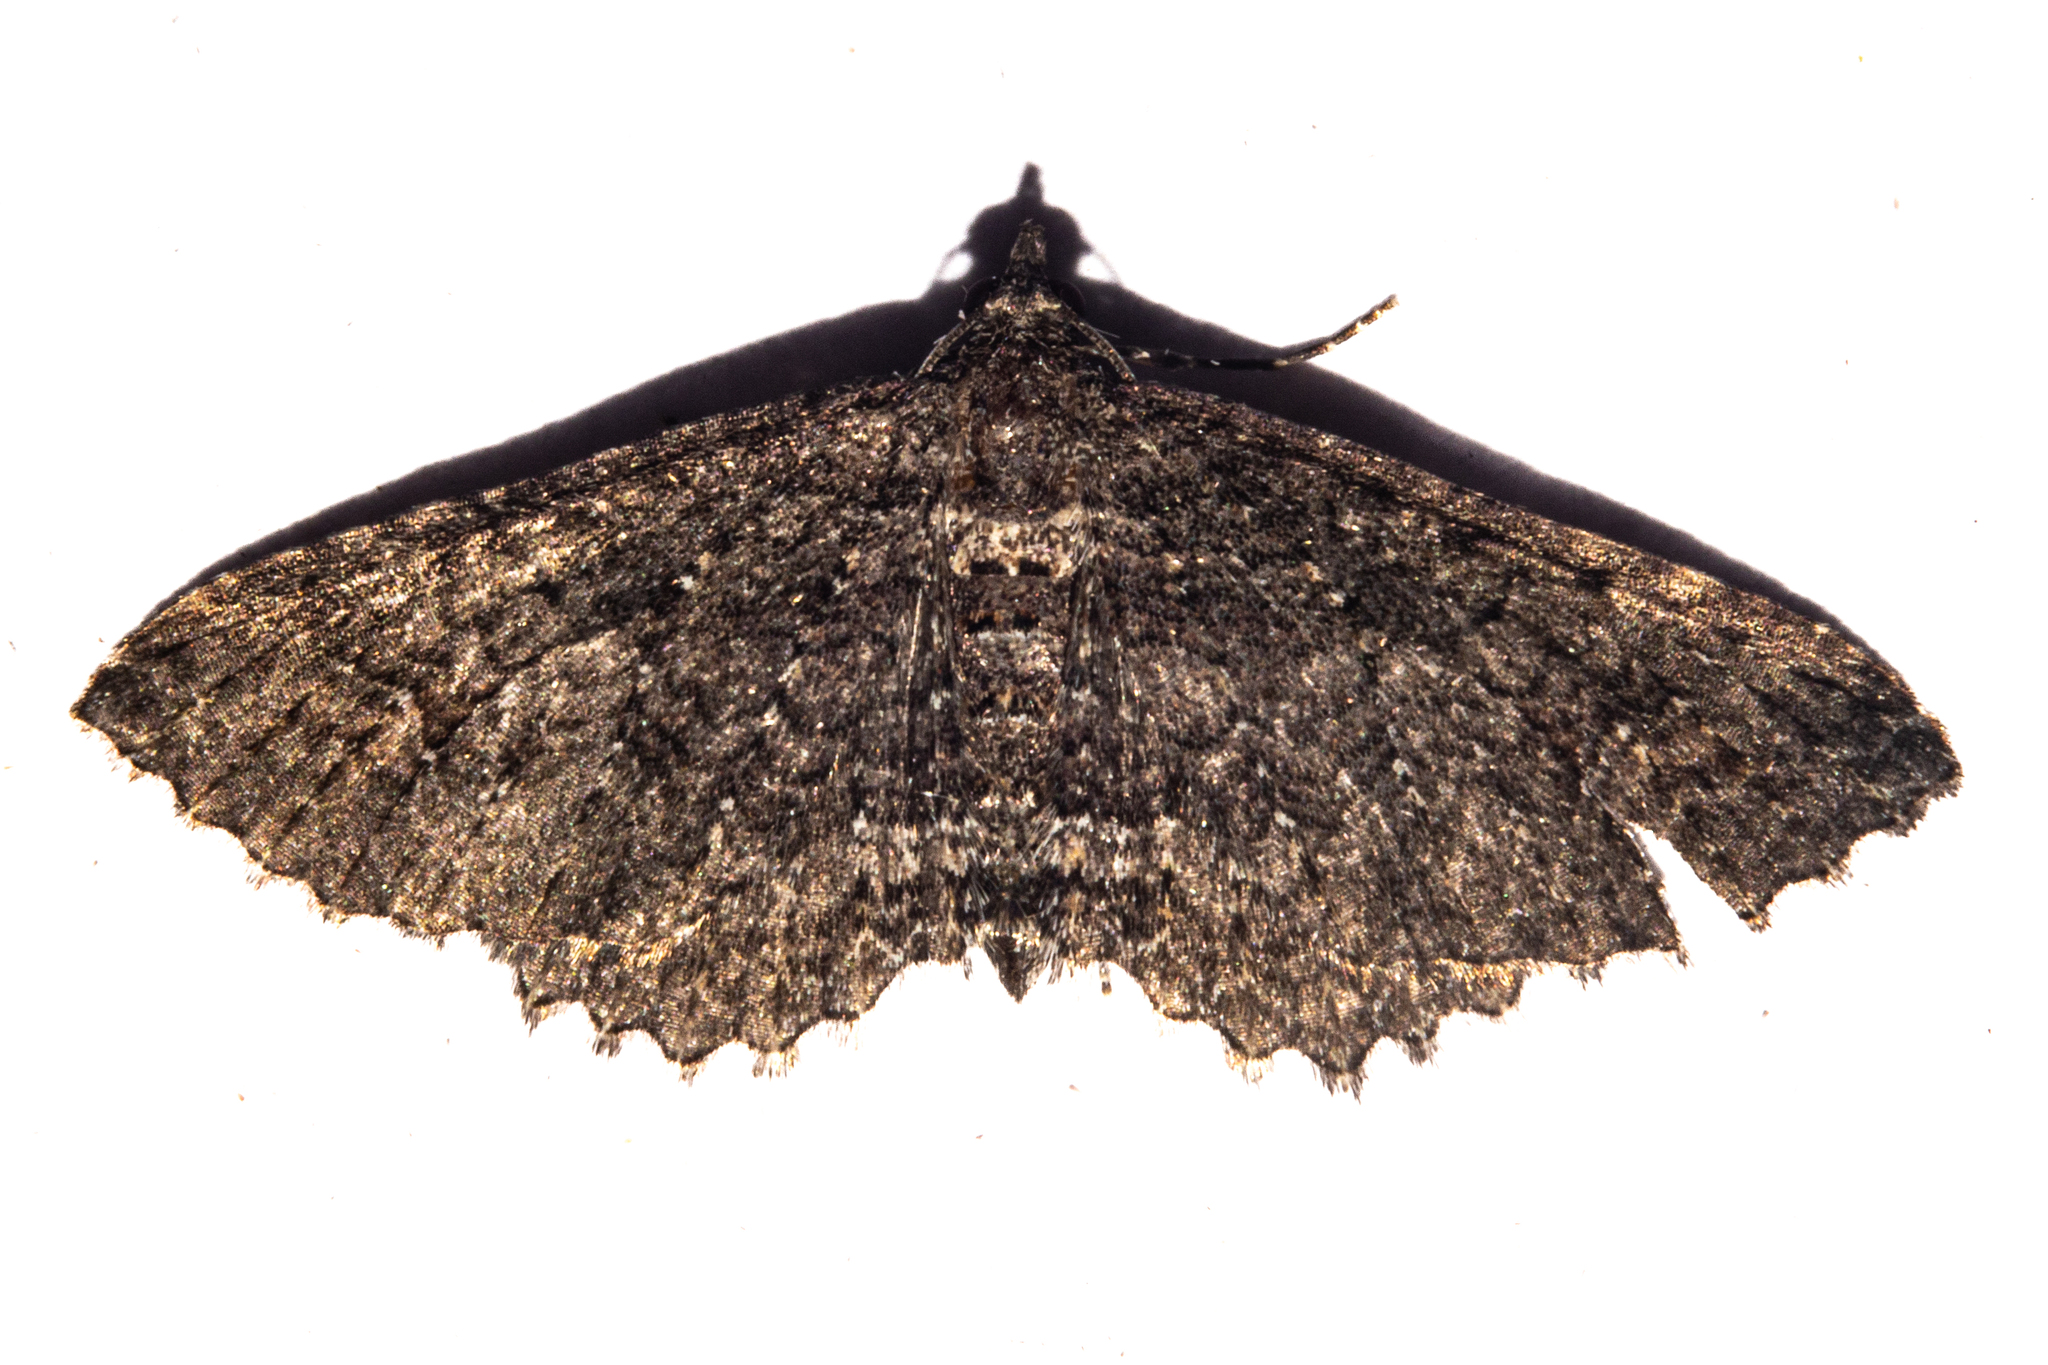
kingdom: Animalia
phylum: Arthropoda
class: Insecta
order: Lepidoptera
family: Geometridae
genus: Horisme
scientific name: Horisme suppressaria
